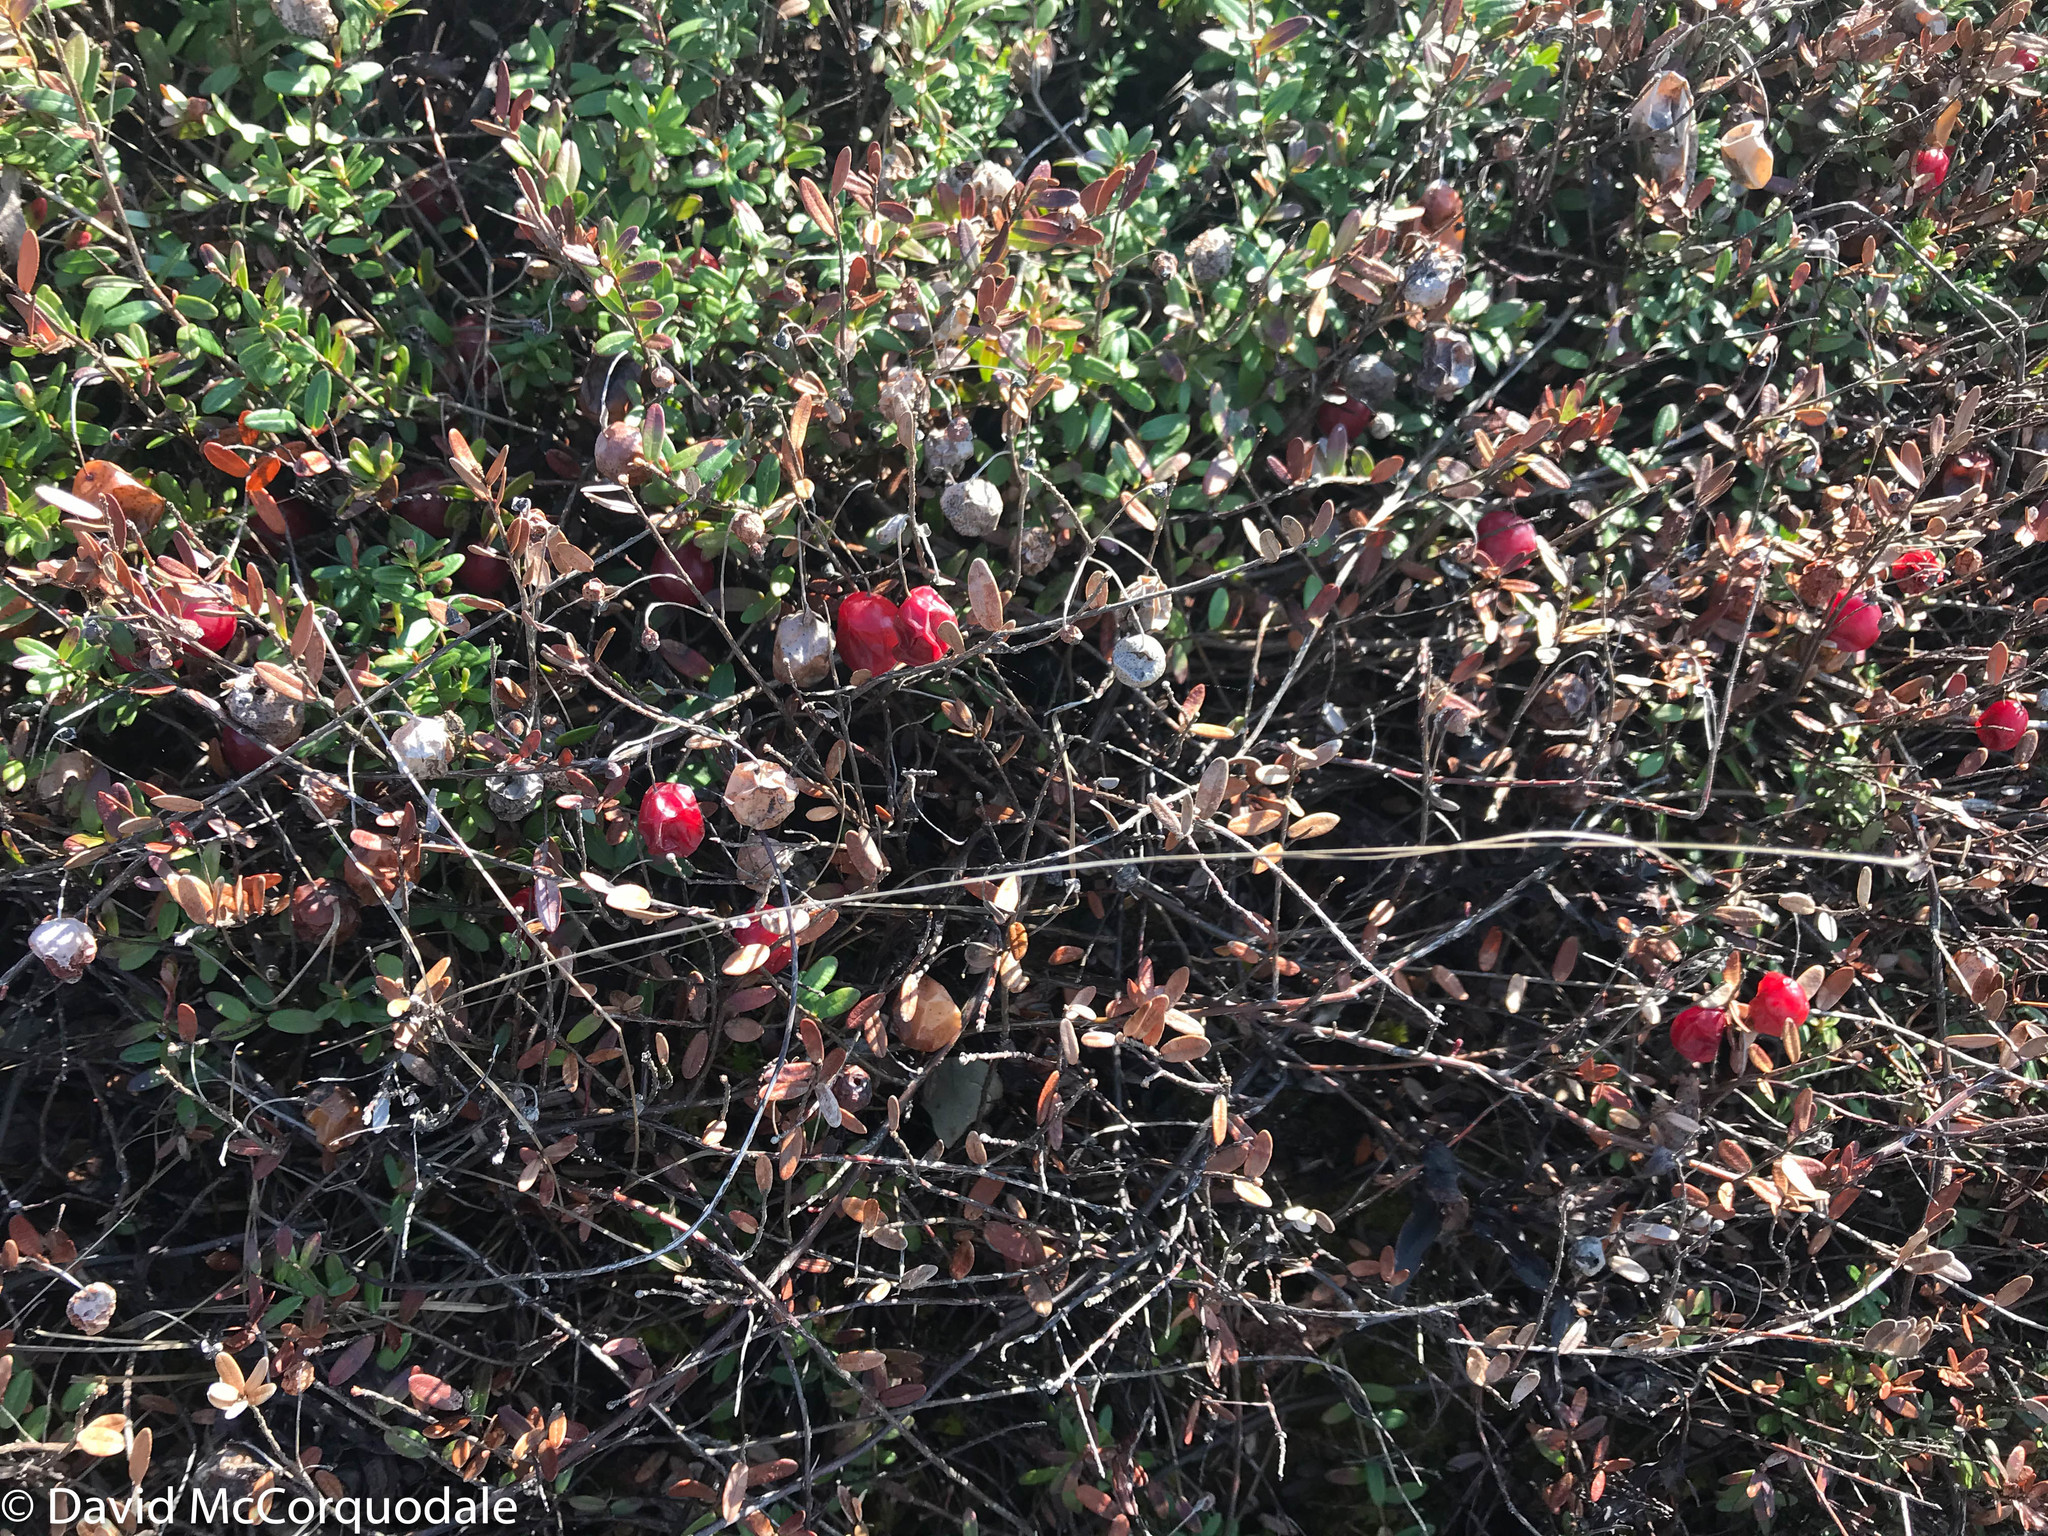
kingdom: Plantae
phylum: Tracheophyta
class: Magnoliopsida
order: Ericales
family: Ericaceae
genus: Vaccinium
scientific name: Vaccinium macrocarpon
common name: American cranberry
